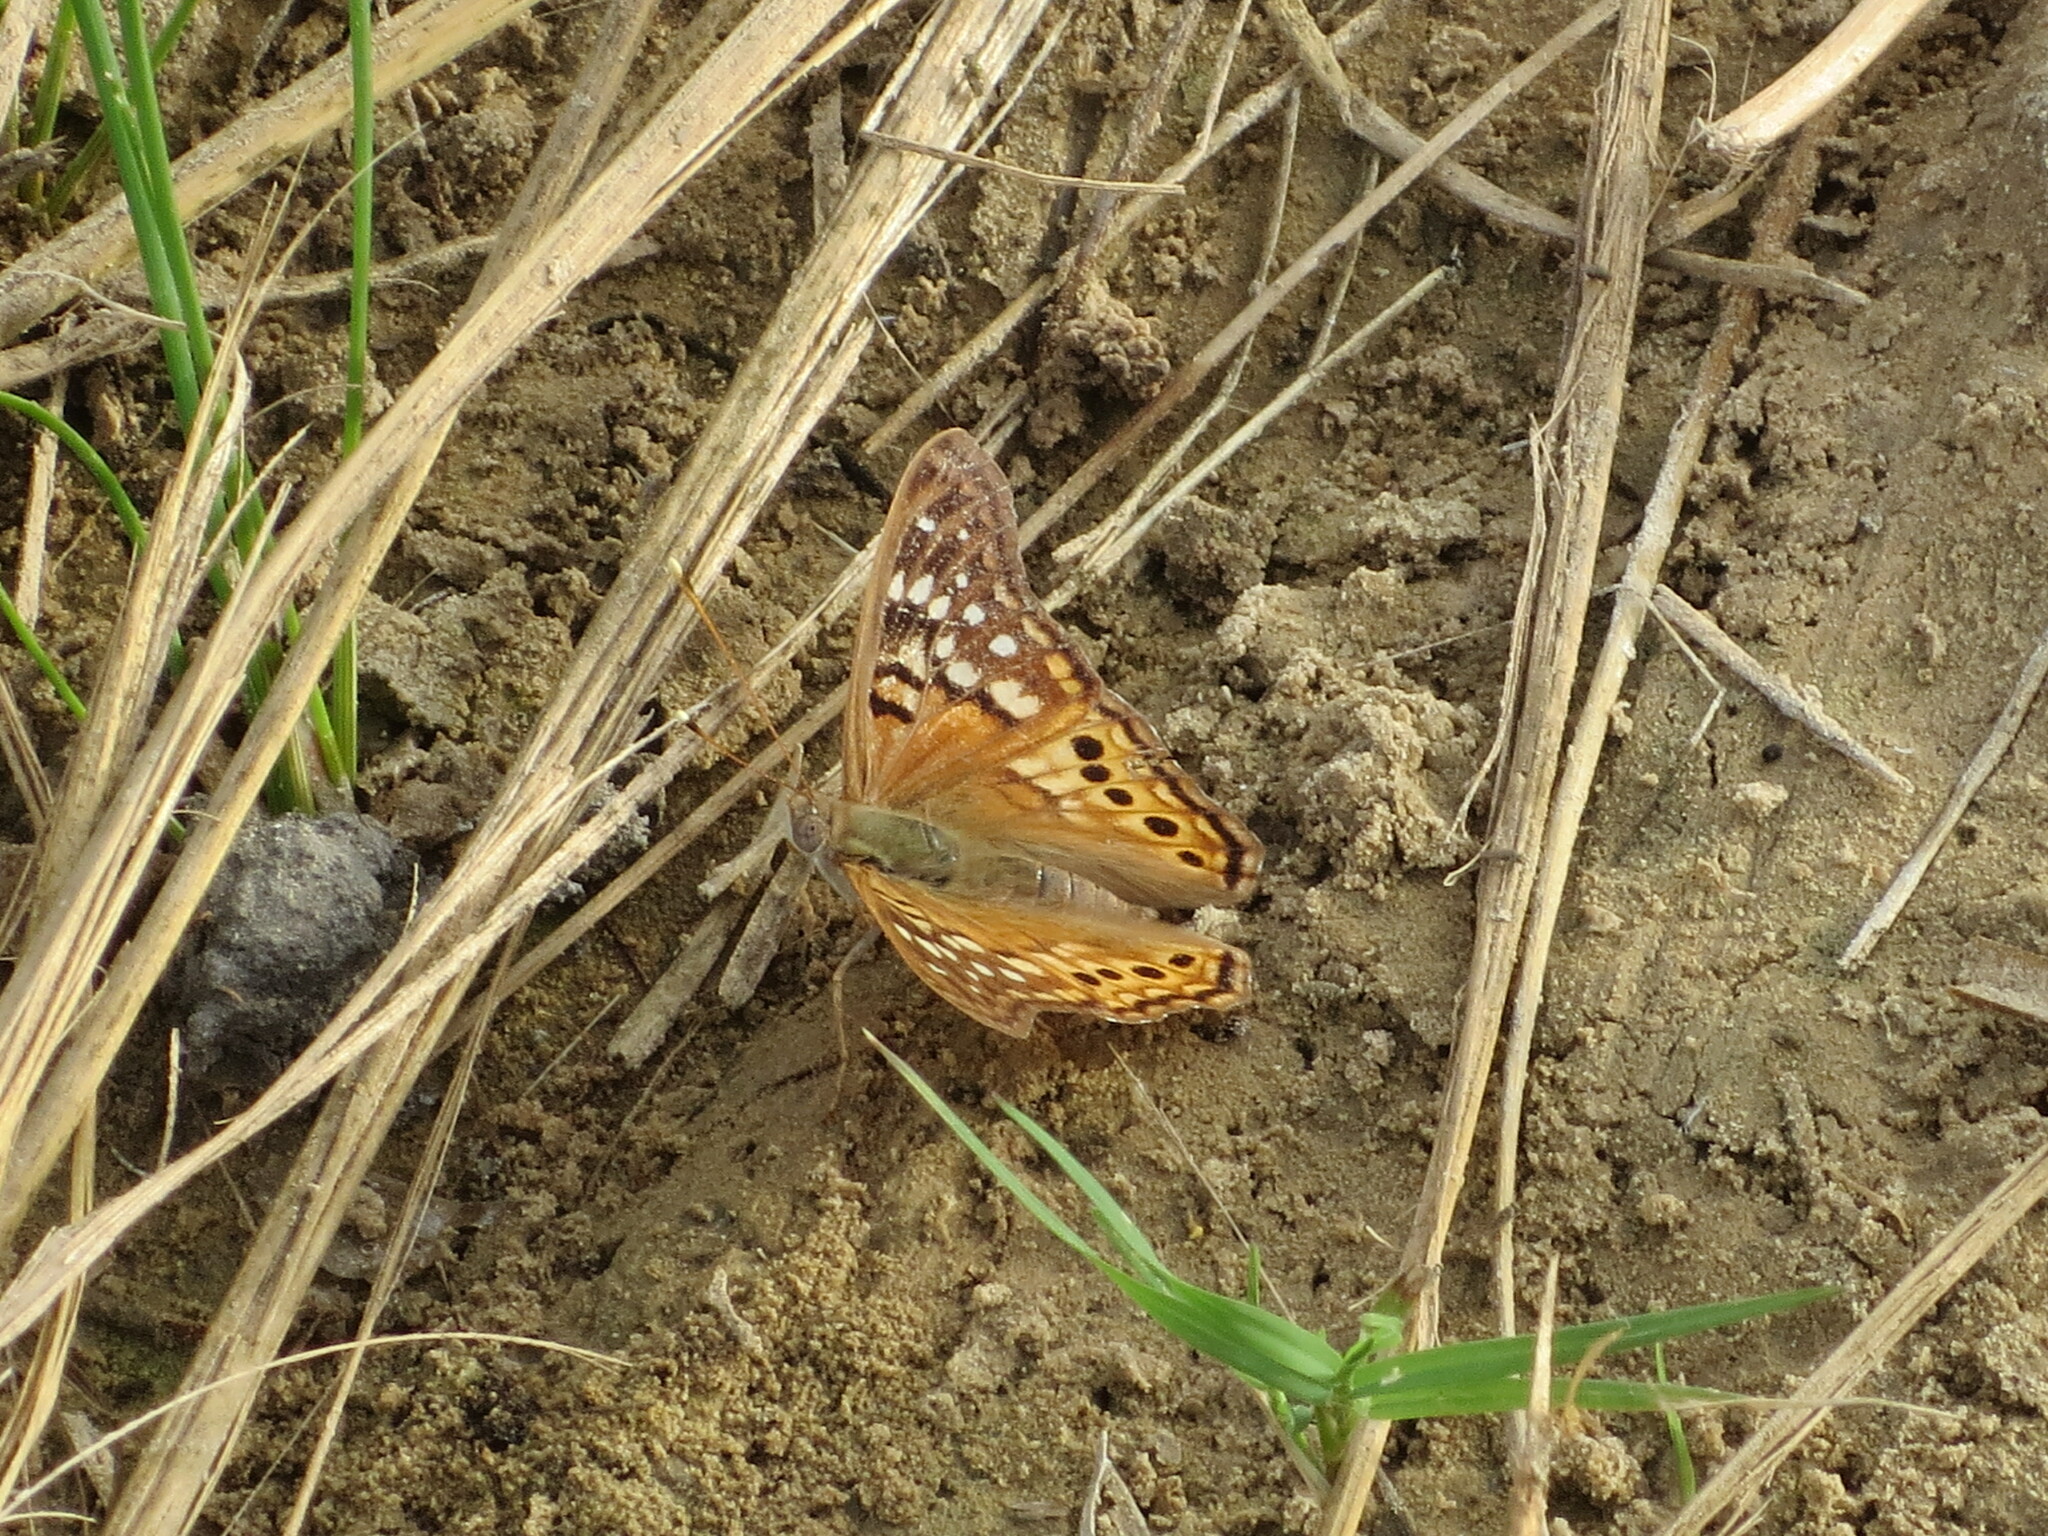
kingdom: Animalia
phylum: Arthropoda
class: Insecta
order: Lepidoptera
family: Nymphalidae
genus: Asterocampa
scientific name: Asterocampa clyton
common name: Tawny emperor
